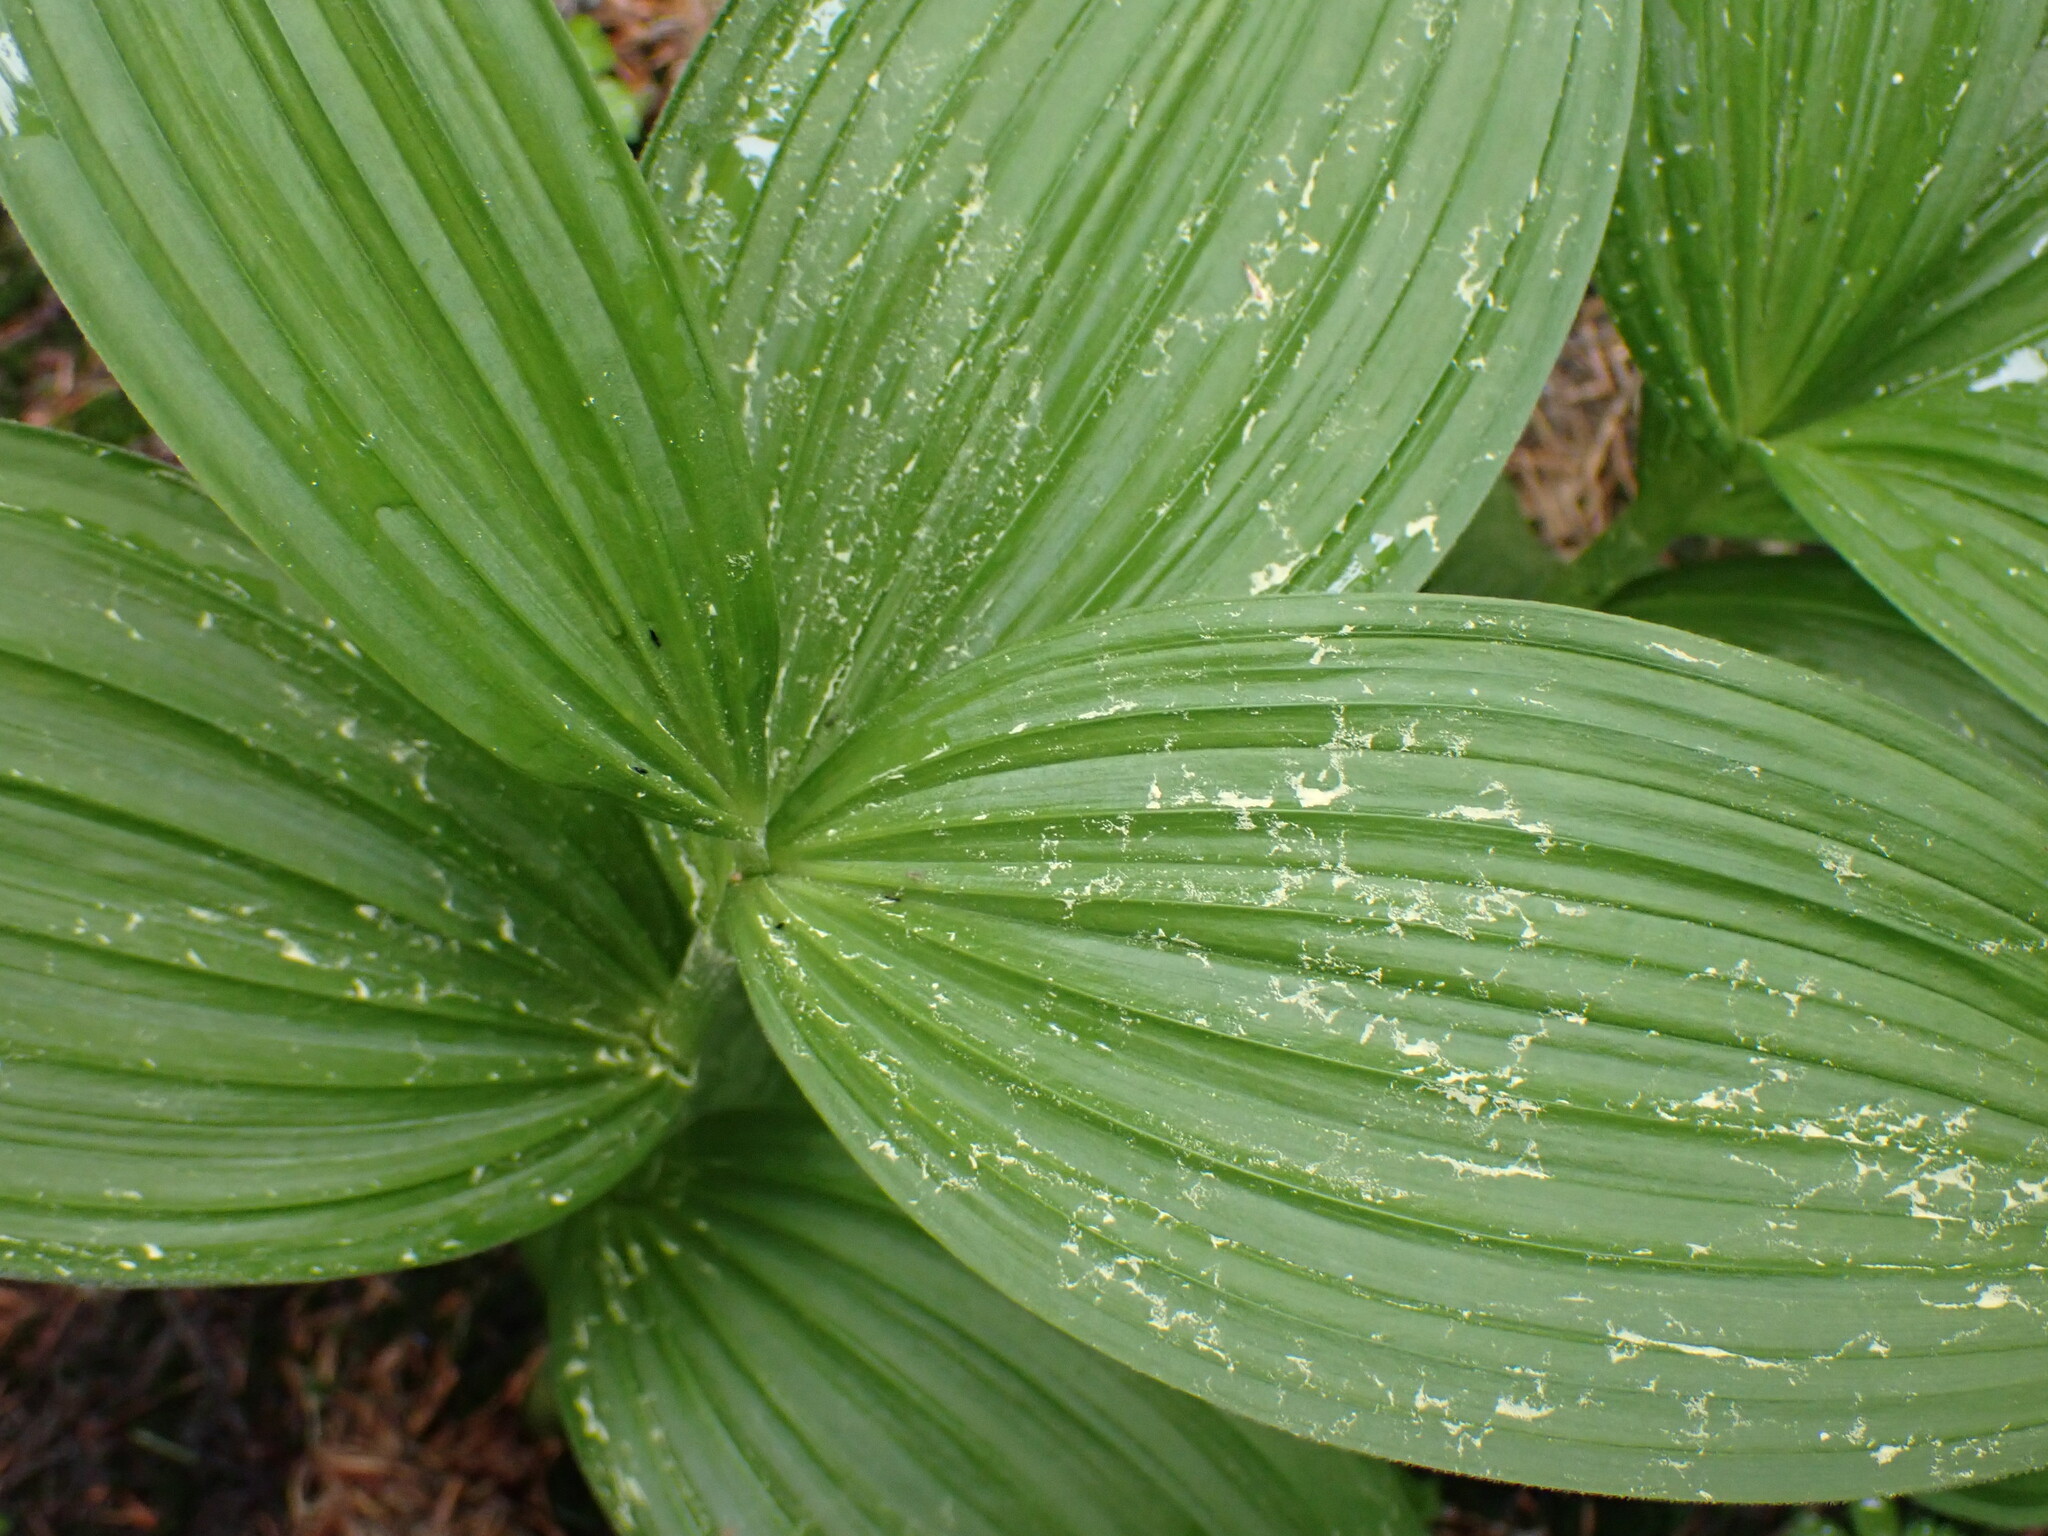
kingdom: Plantae
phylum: Tracheophyta
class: Liliopsida
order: Liliales
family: Melanthiaceae
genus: Veratrum
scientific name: Veratrum viride
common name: American false hellebore
